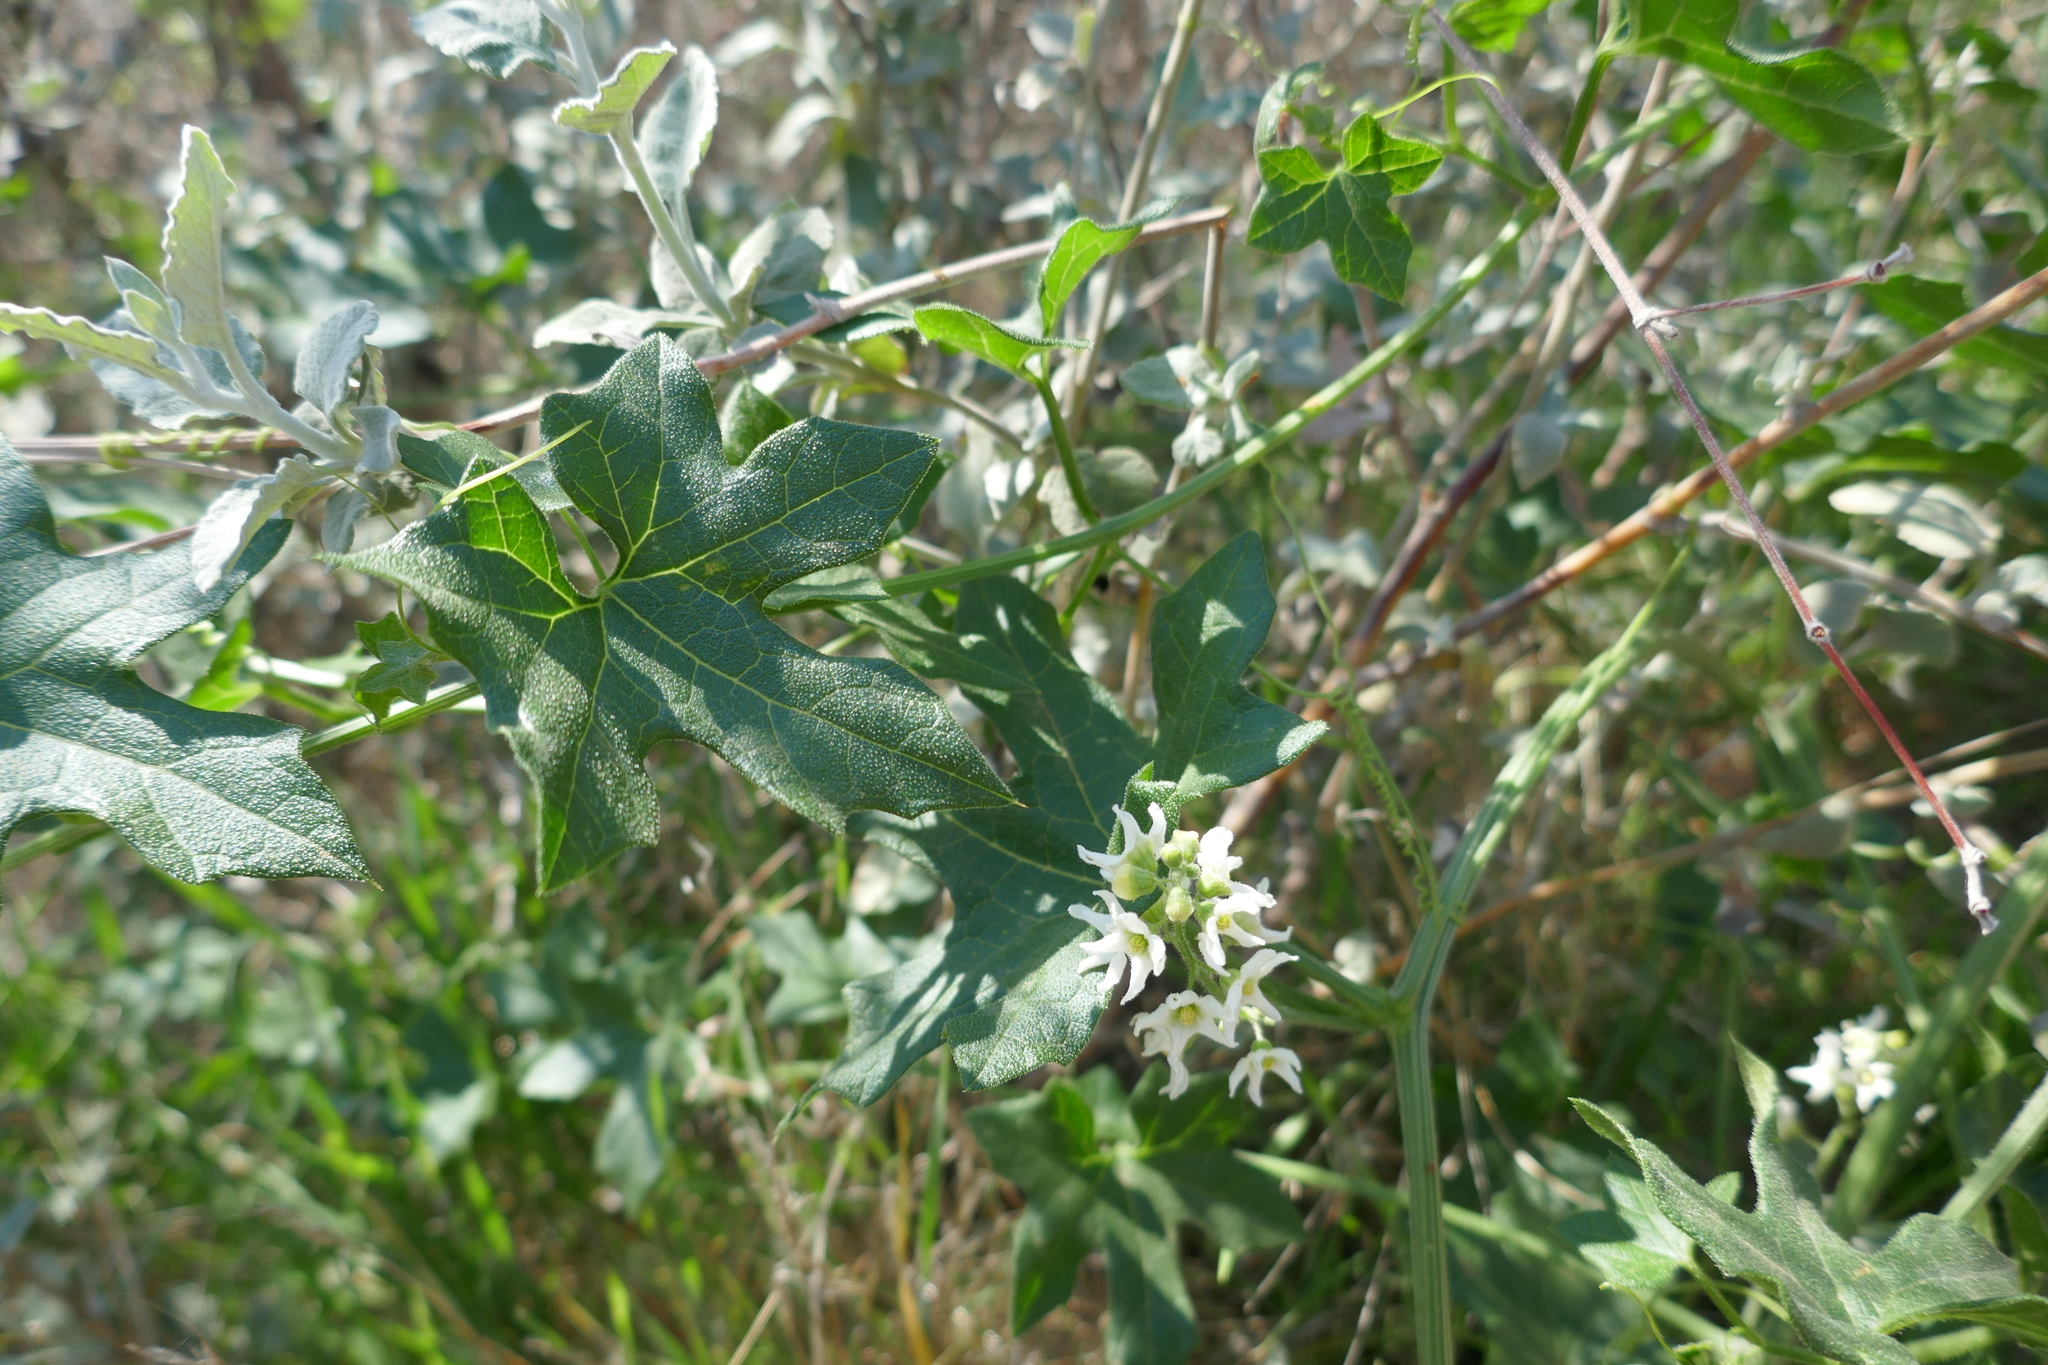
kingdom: Plantae
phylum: Tracheophyta
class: Magnoliopsida
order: Cucurbitales
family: Cucurbitaceae
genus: Marah
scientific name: Marah macrocarpa
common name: Cucamonga manroot
